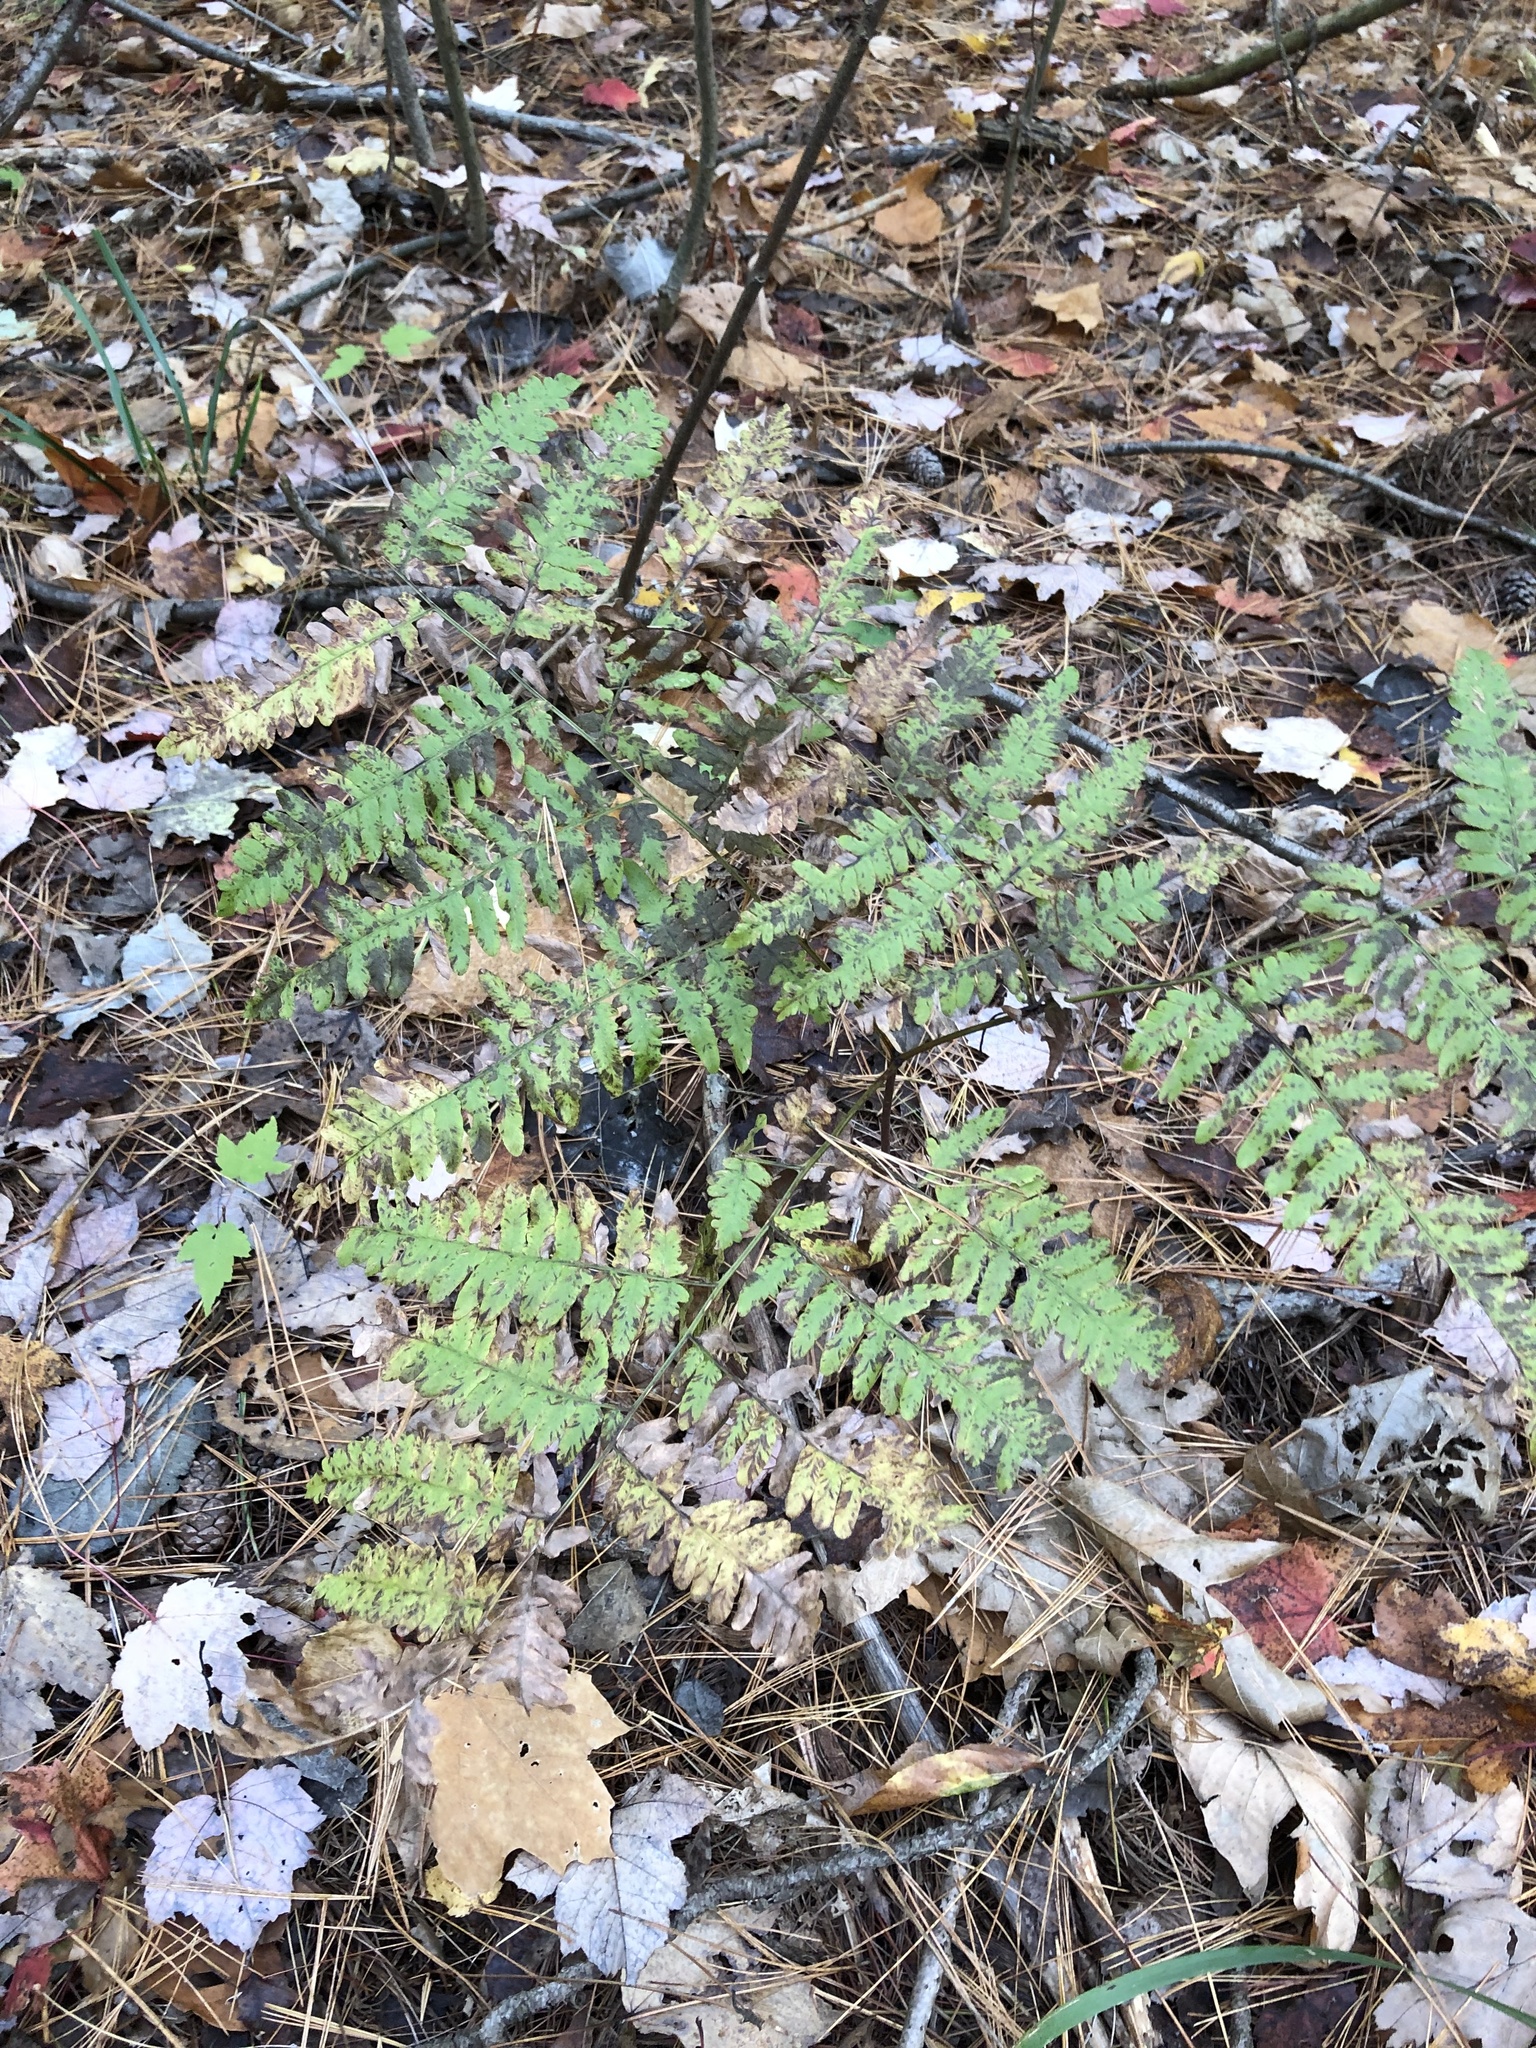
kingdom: Plantae
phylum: Tracheophyta
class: Polypodiopsida
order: Polypodiales
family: Dennstaedtiaceae
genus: Pteridium
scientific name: Pteridium aquilinum
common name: Bracken
